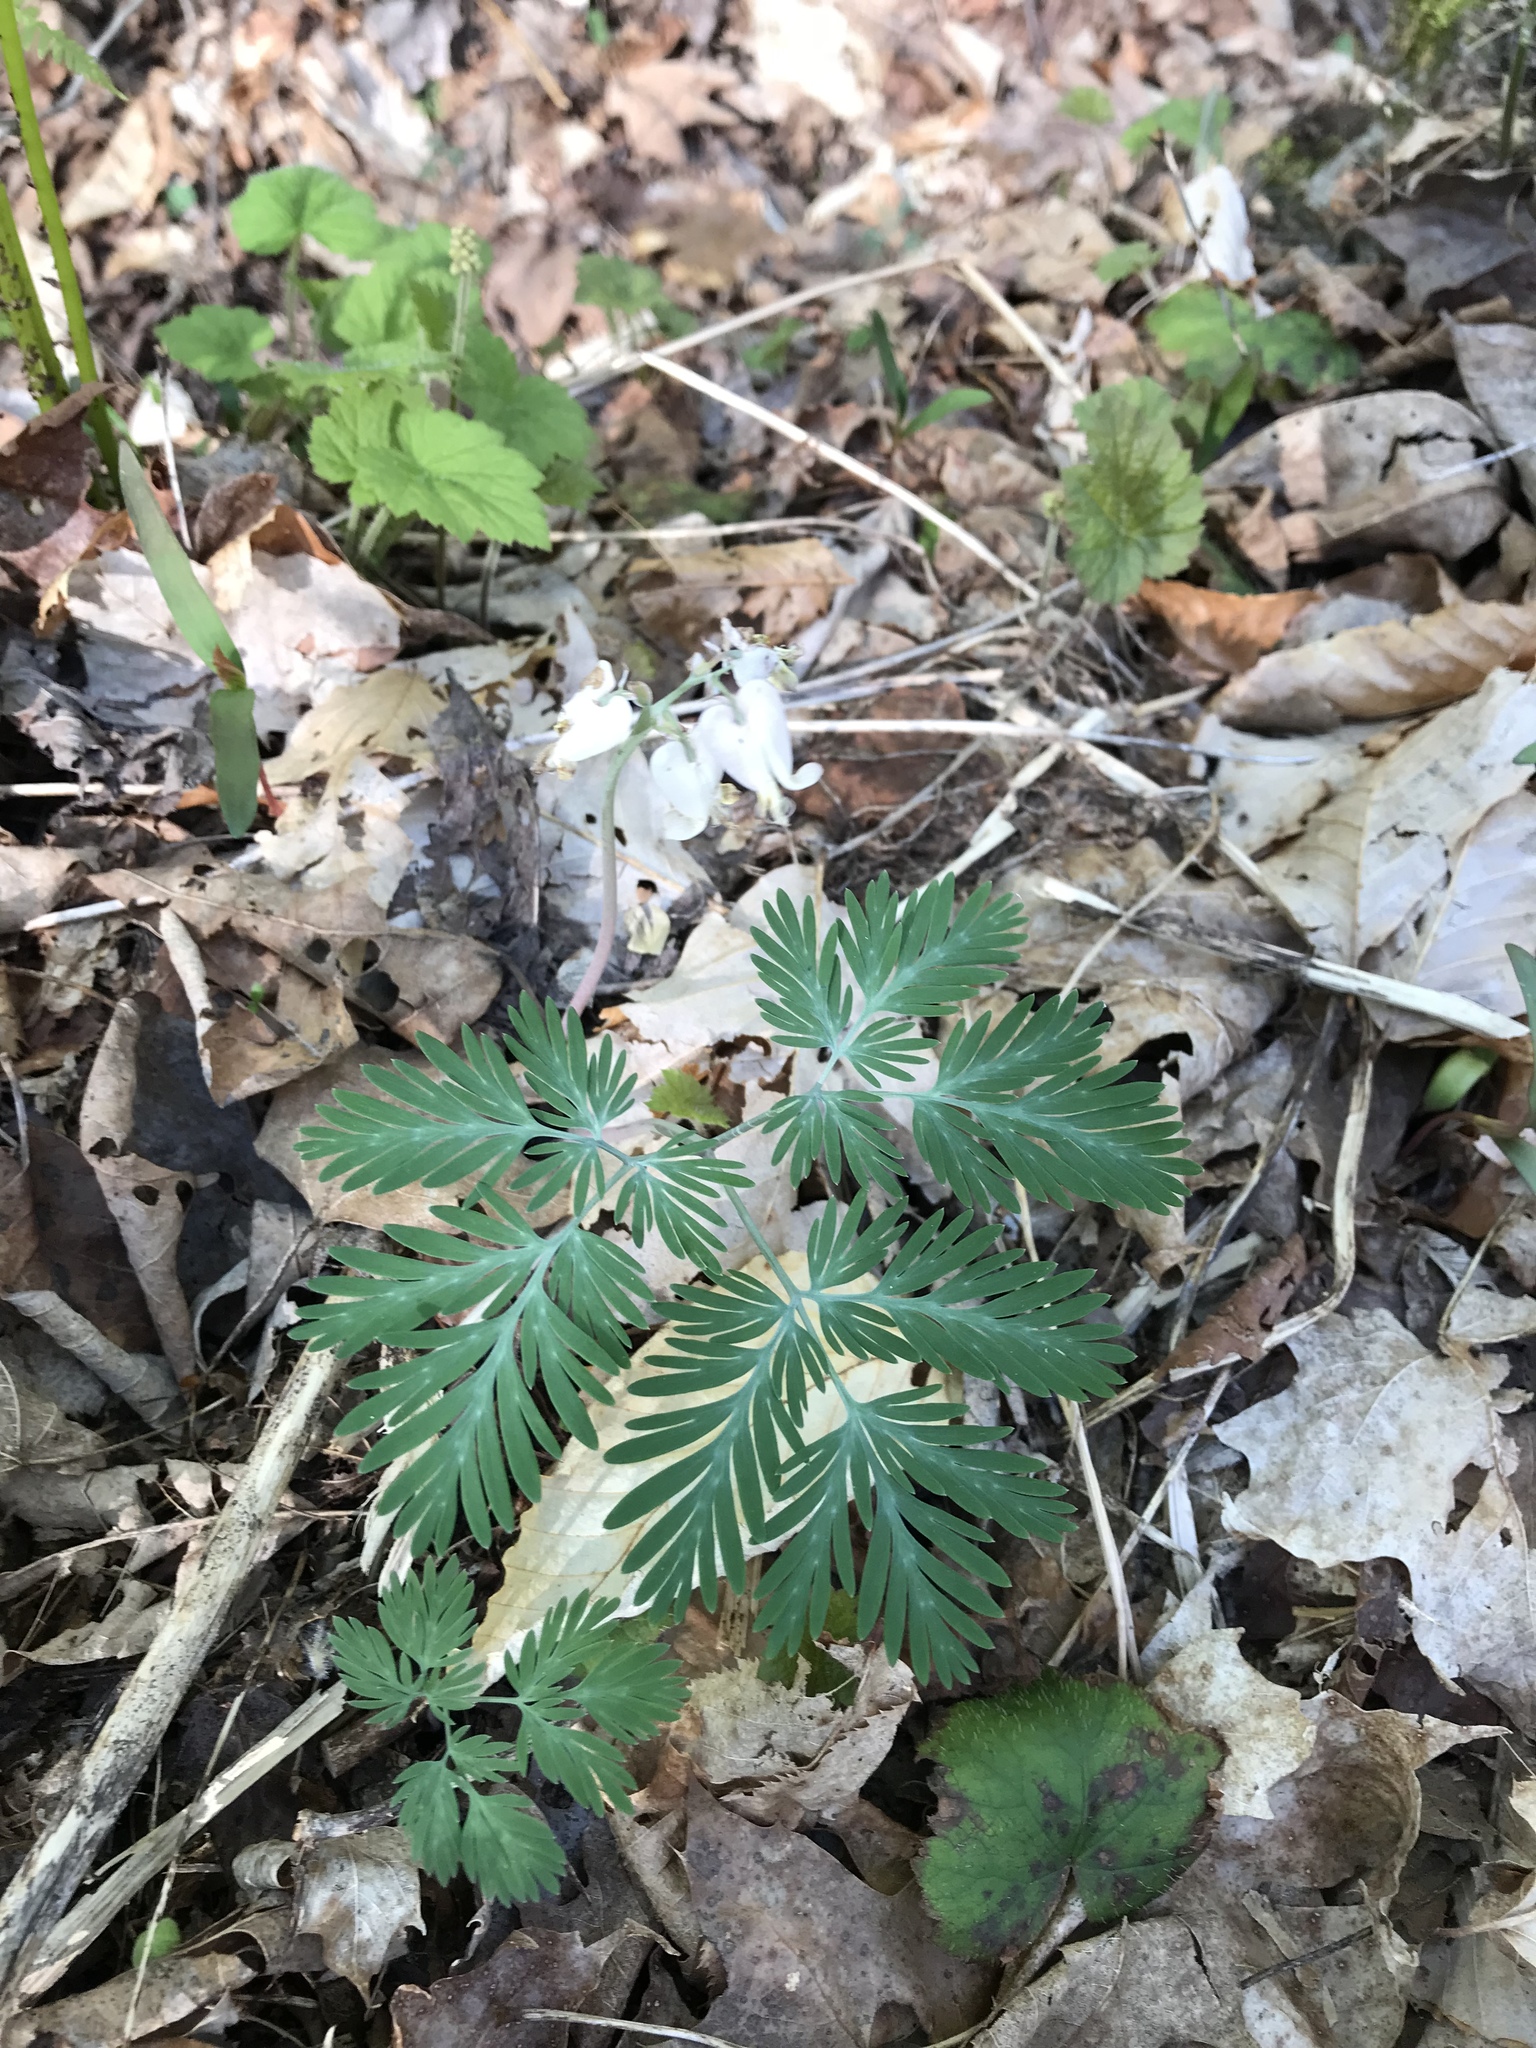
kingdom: Plantae
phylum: Tracheophyta
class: Magnoliopsida
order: Ranunculales
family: Papaveraceae
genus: Dicentra
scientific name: Dicentra canadensis
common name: Squirrel-corn
